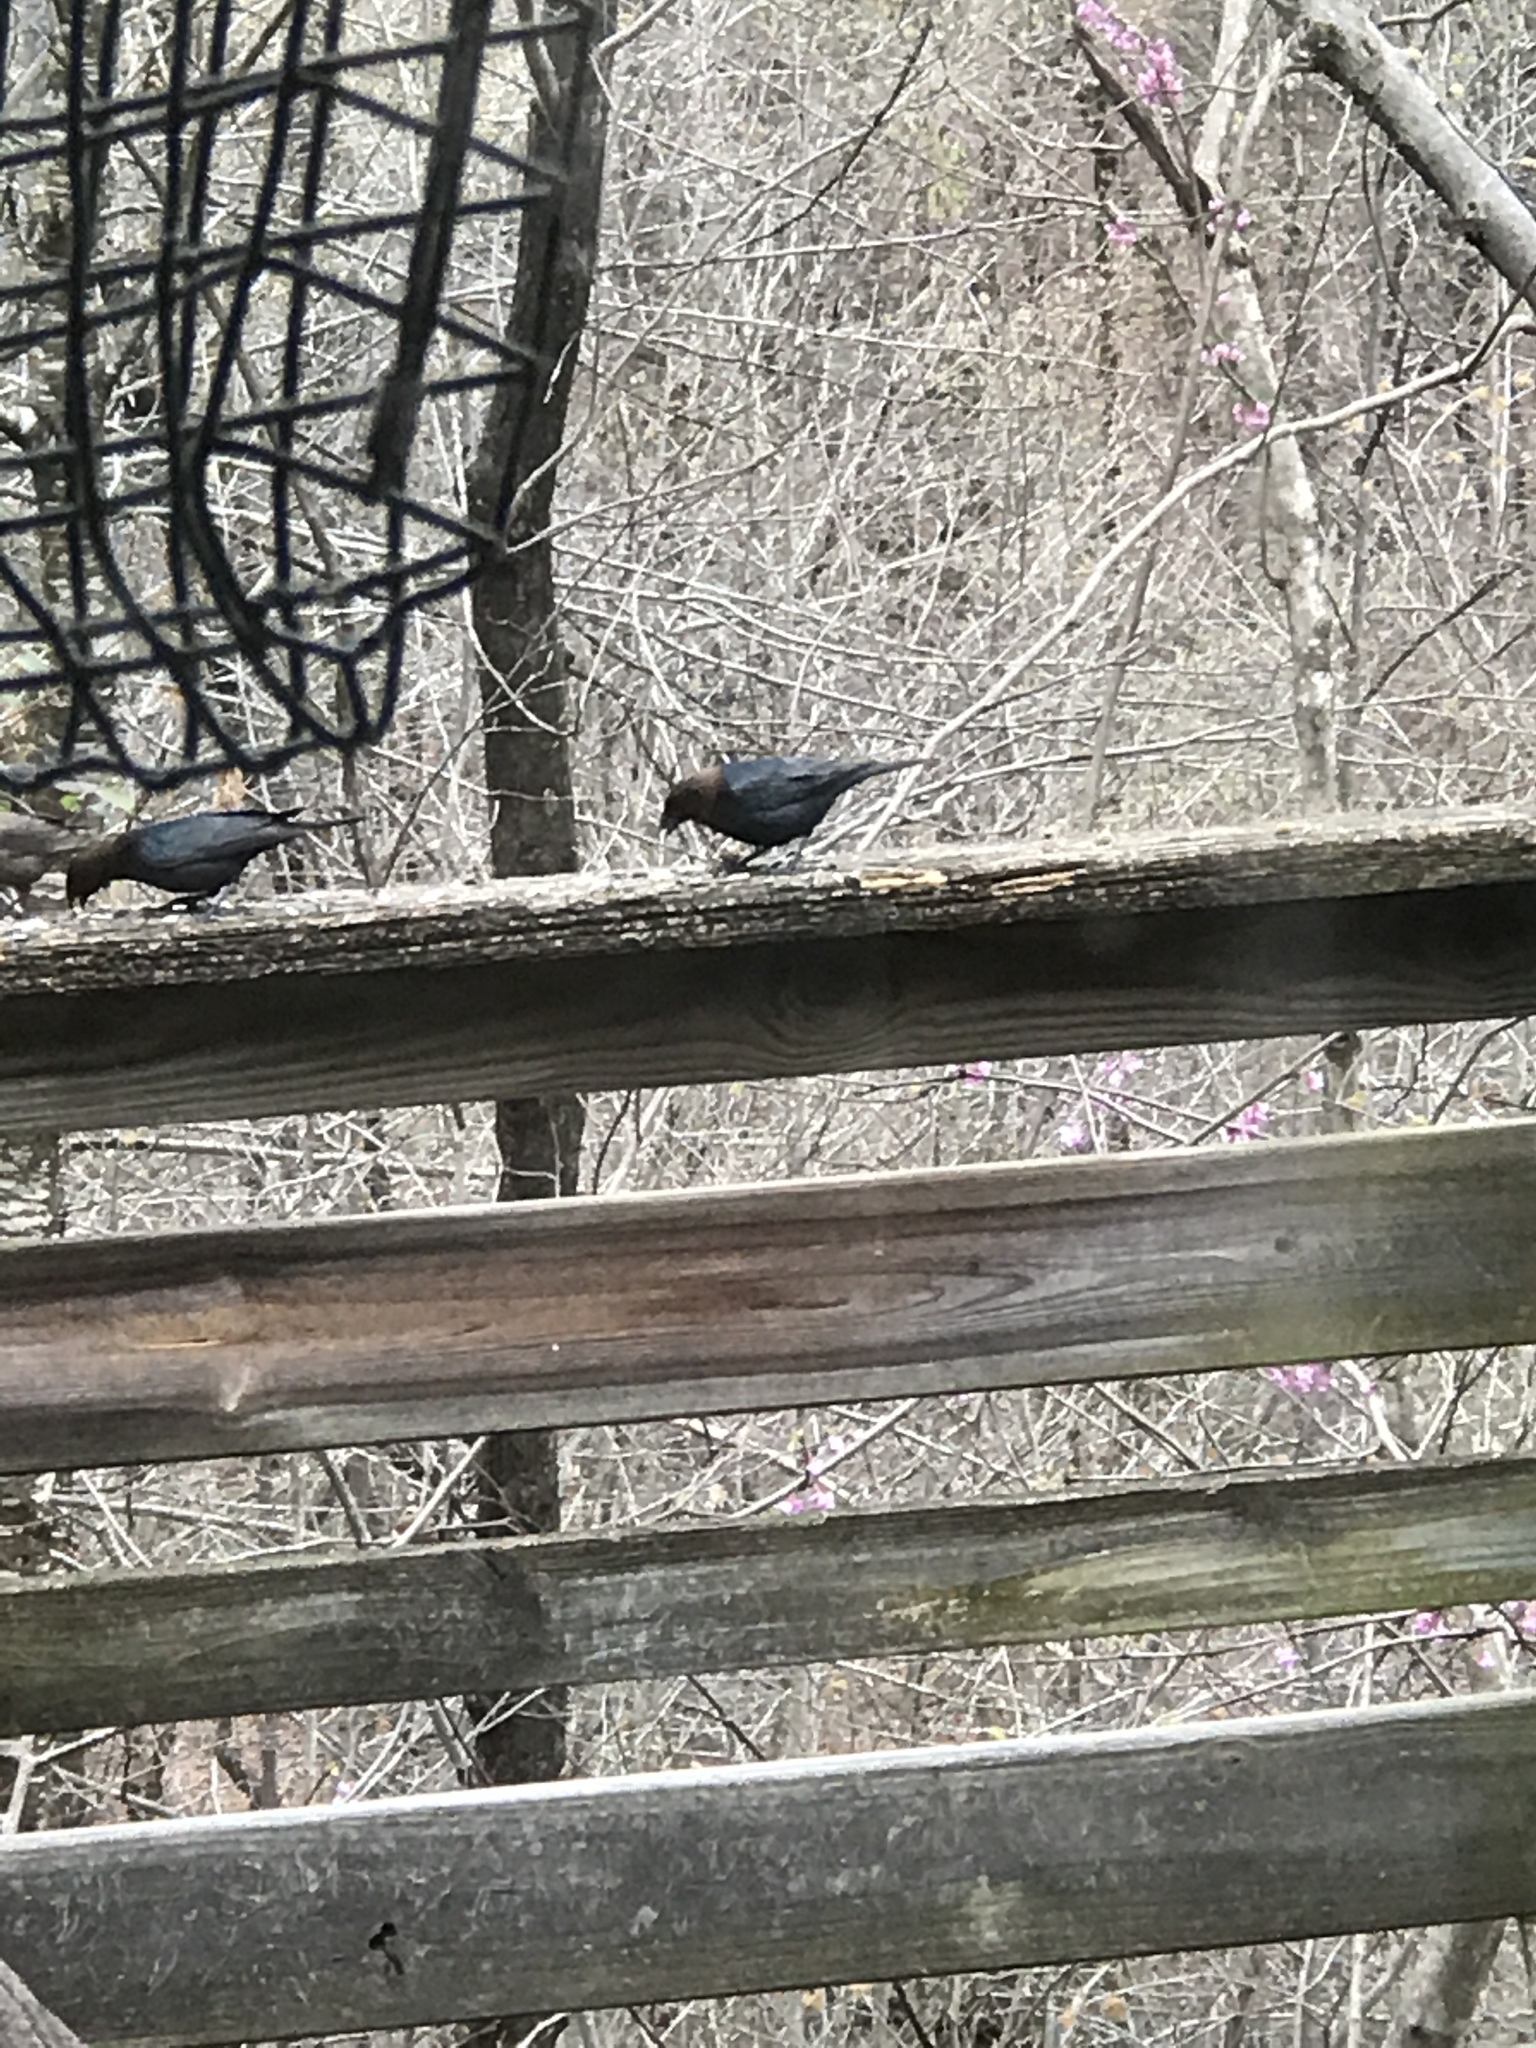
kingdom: Animalia
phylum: Chordata
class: Aves
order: Passeriformes
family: Icteridae
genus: Molothrus
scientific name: Molothrus ater
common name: Brown-headed cowbird
